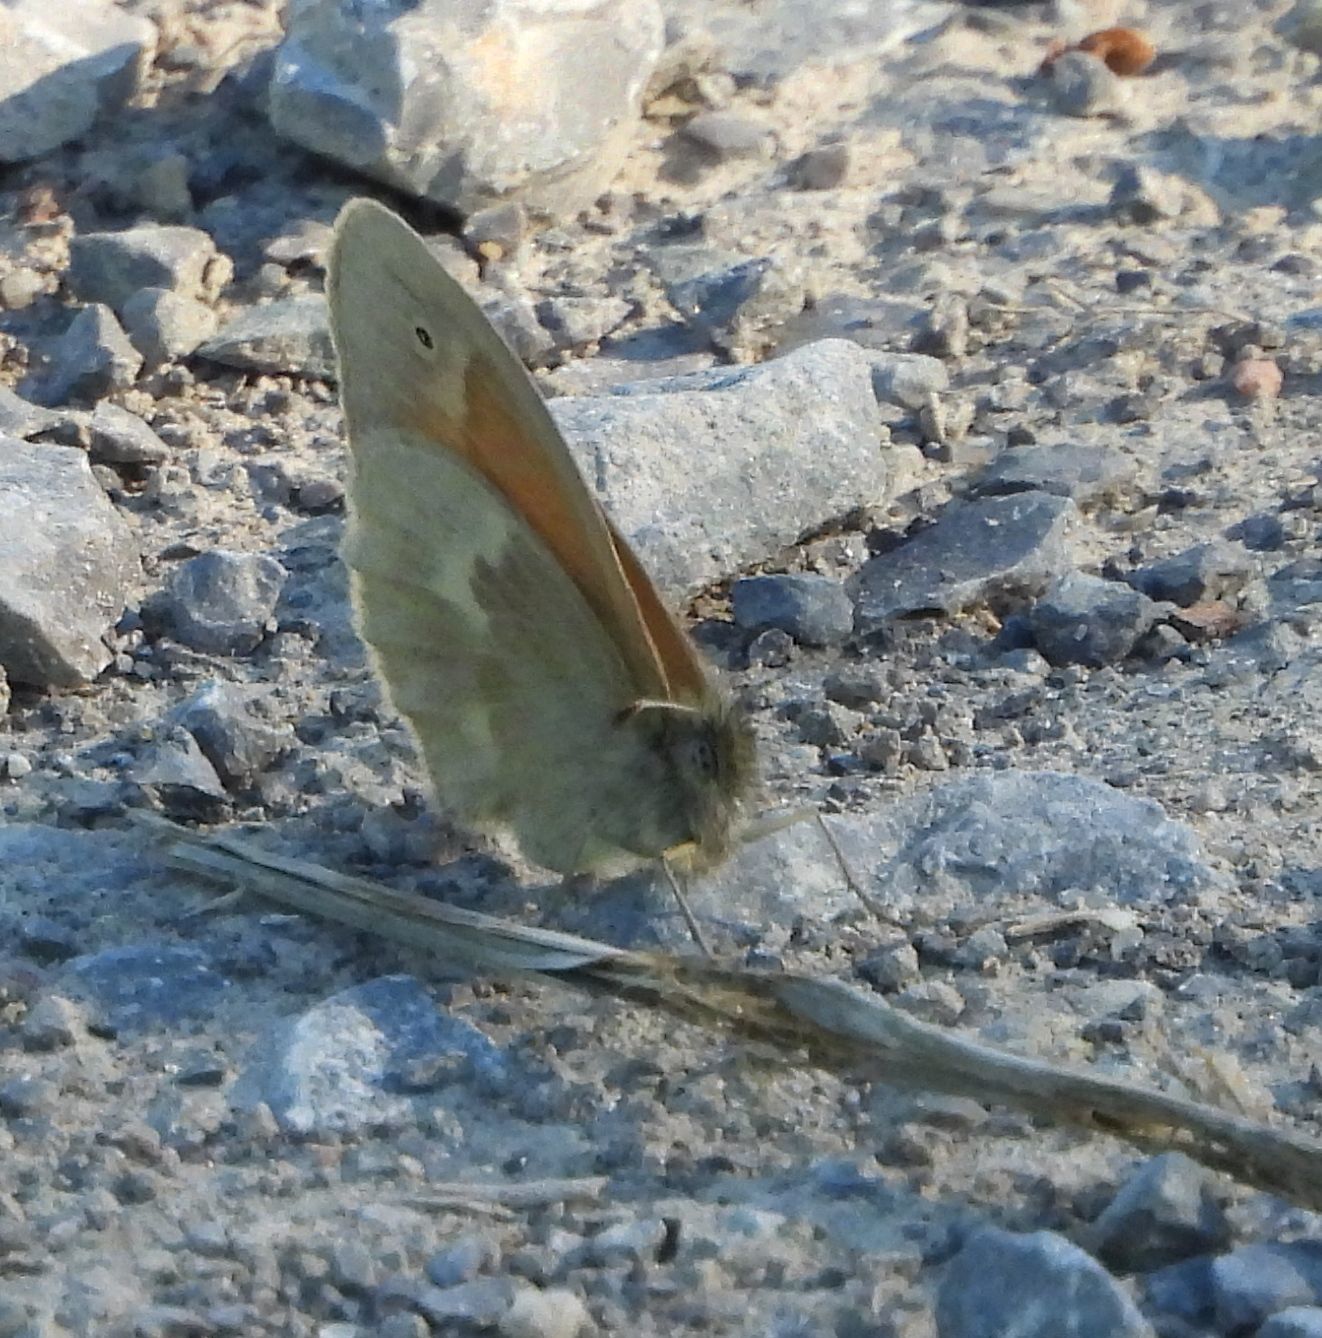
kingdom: Animalia
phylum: Arthropoda
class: Insecta
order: Lepidoptera
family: Nymphalidae
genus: Coenonympha
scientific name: Coenonympha california
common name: Common ringlet
